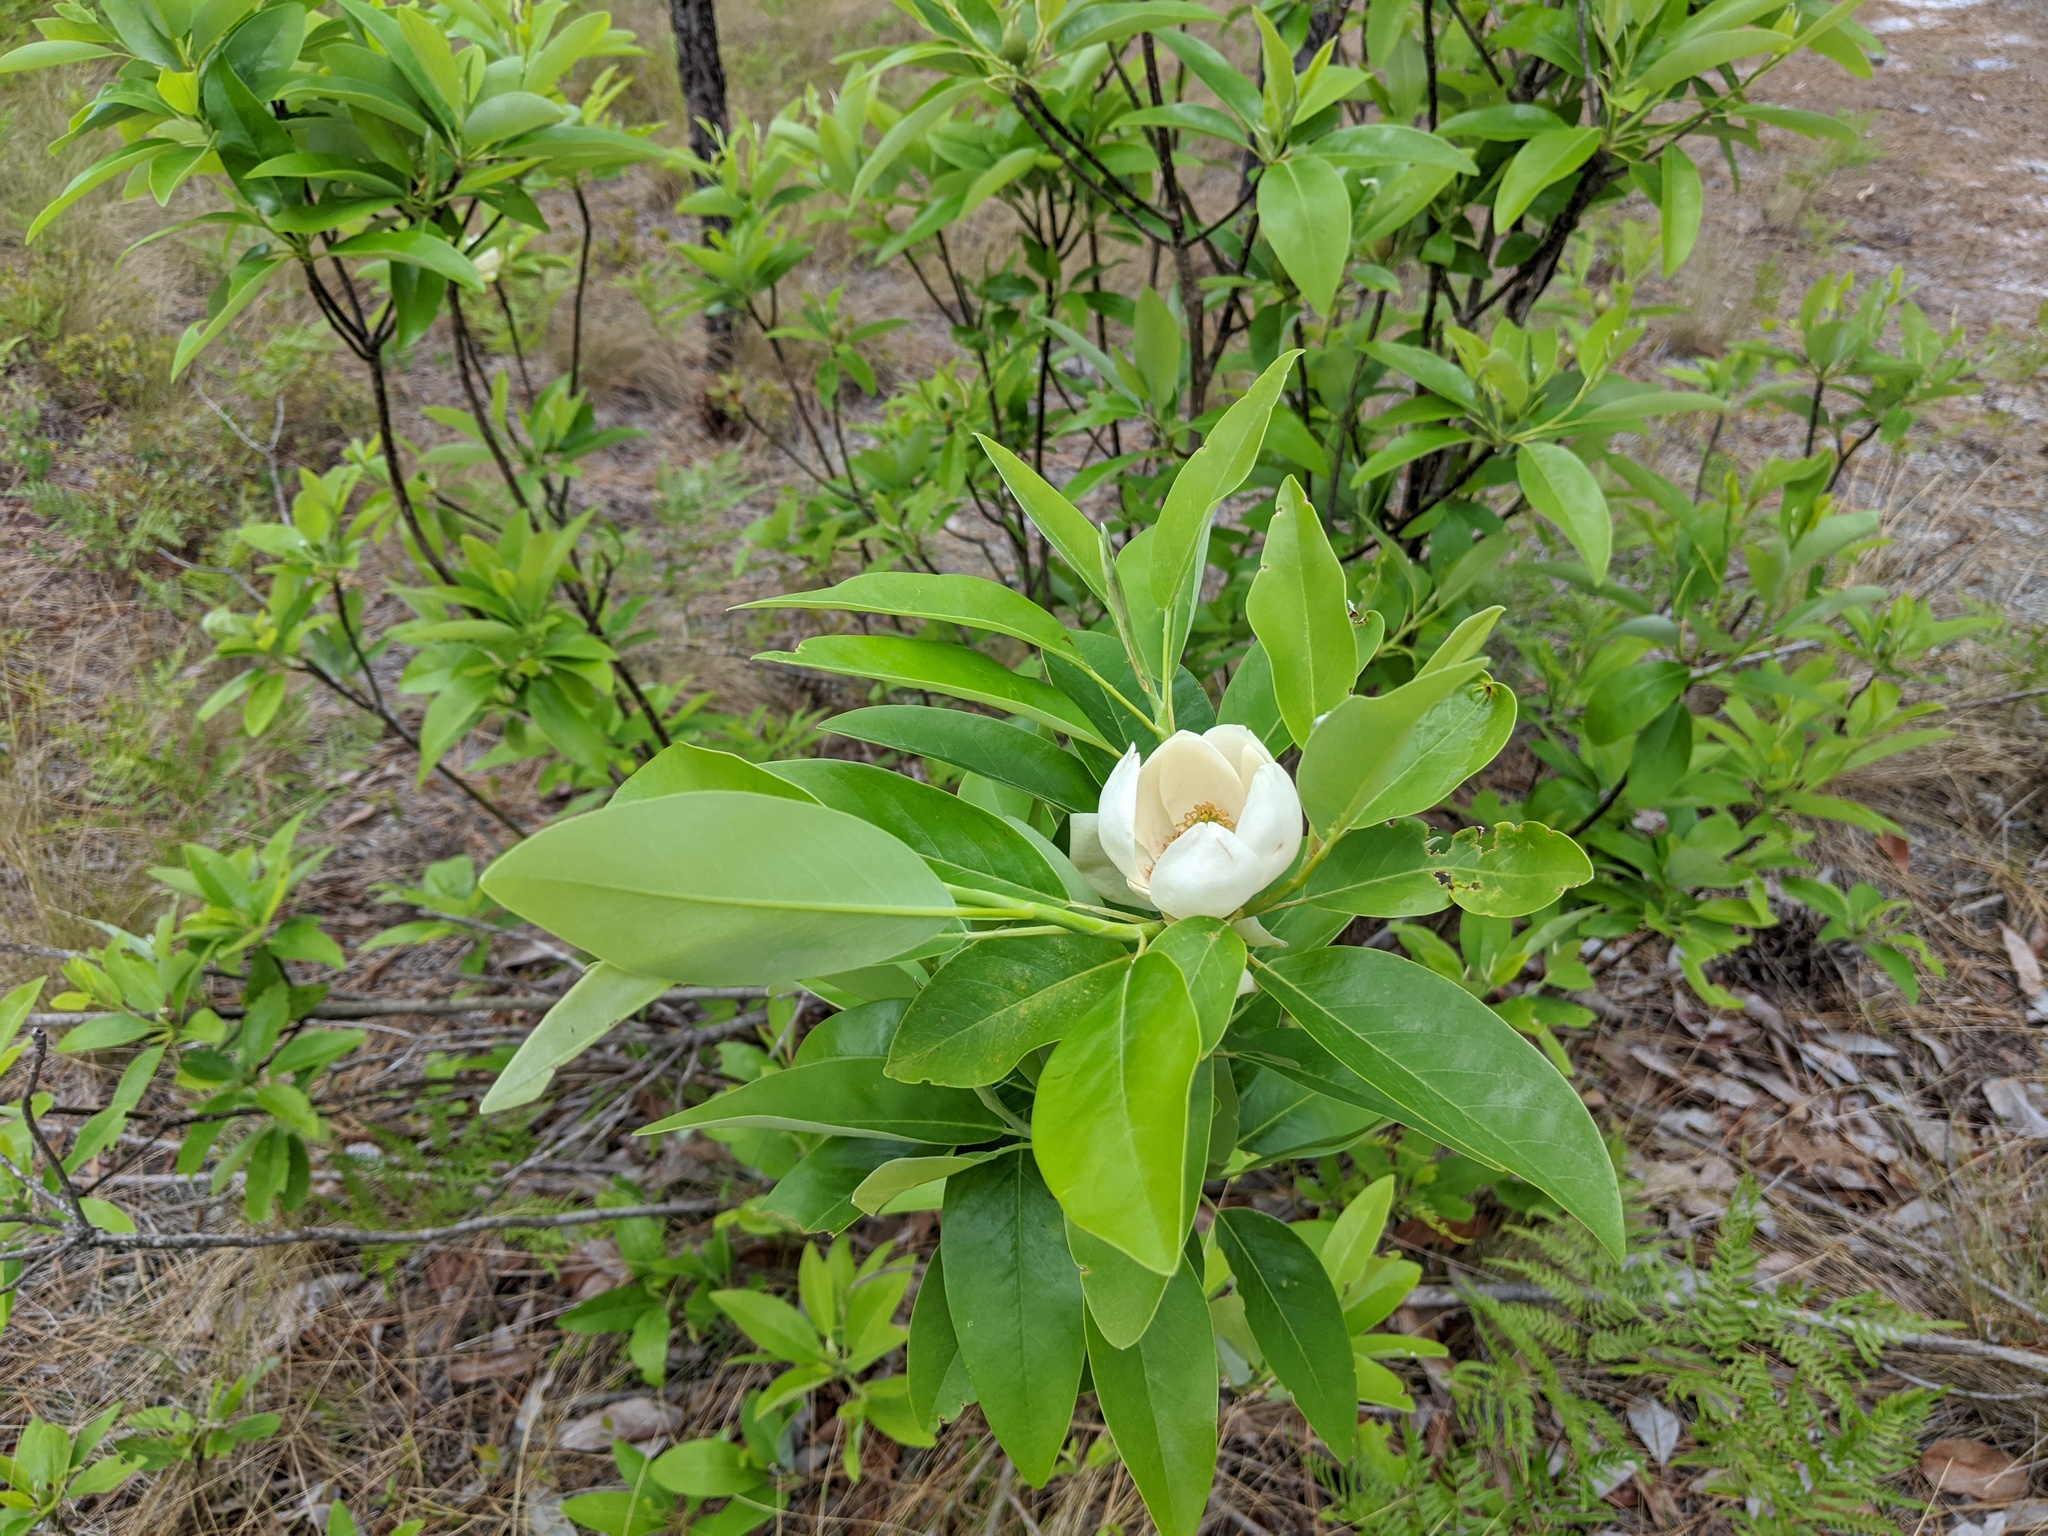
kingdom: Plantae
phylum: Tracheophyta
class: Magnoliopsida
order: Magnoliales
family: Magnoliaceae
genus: Magnolia
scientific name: Magnolia virginiana
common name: Swamp bay
